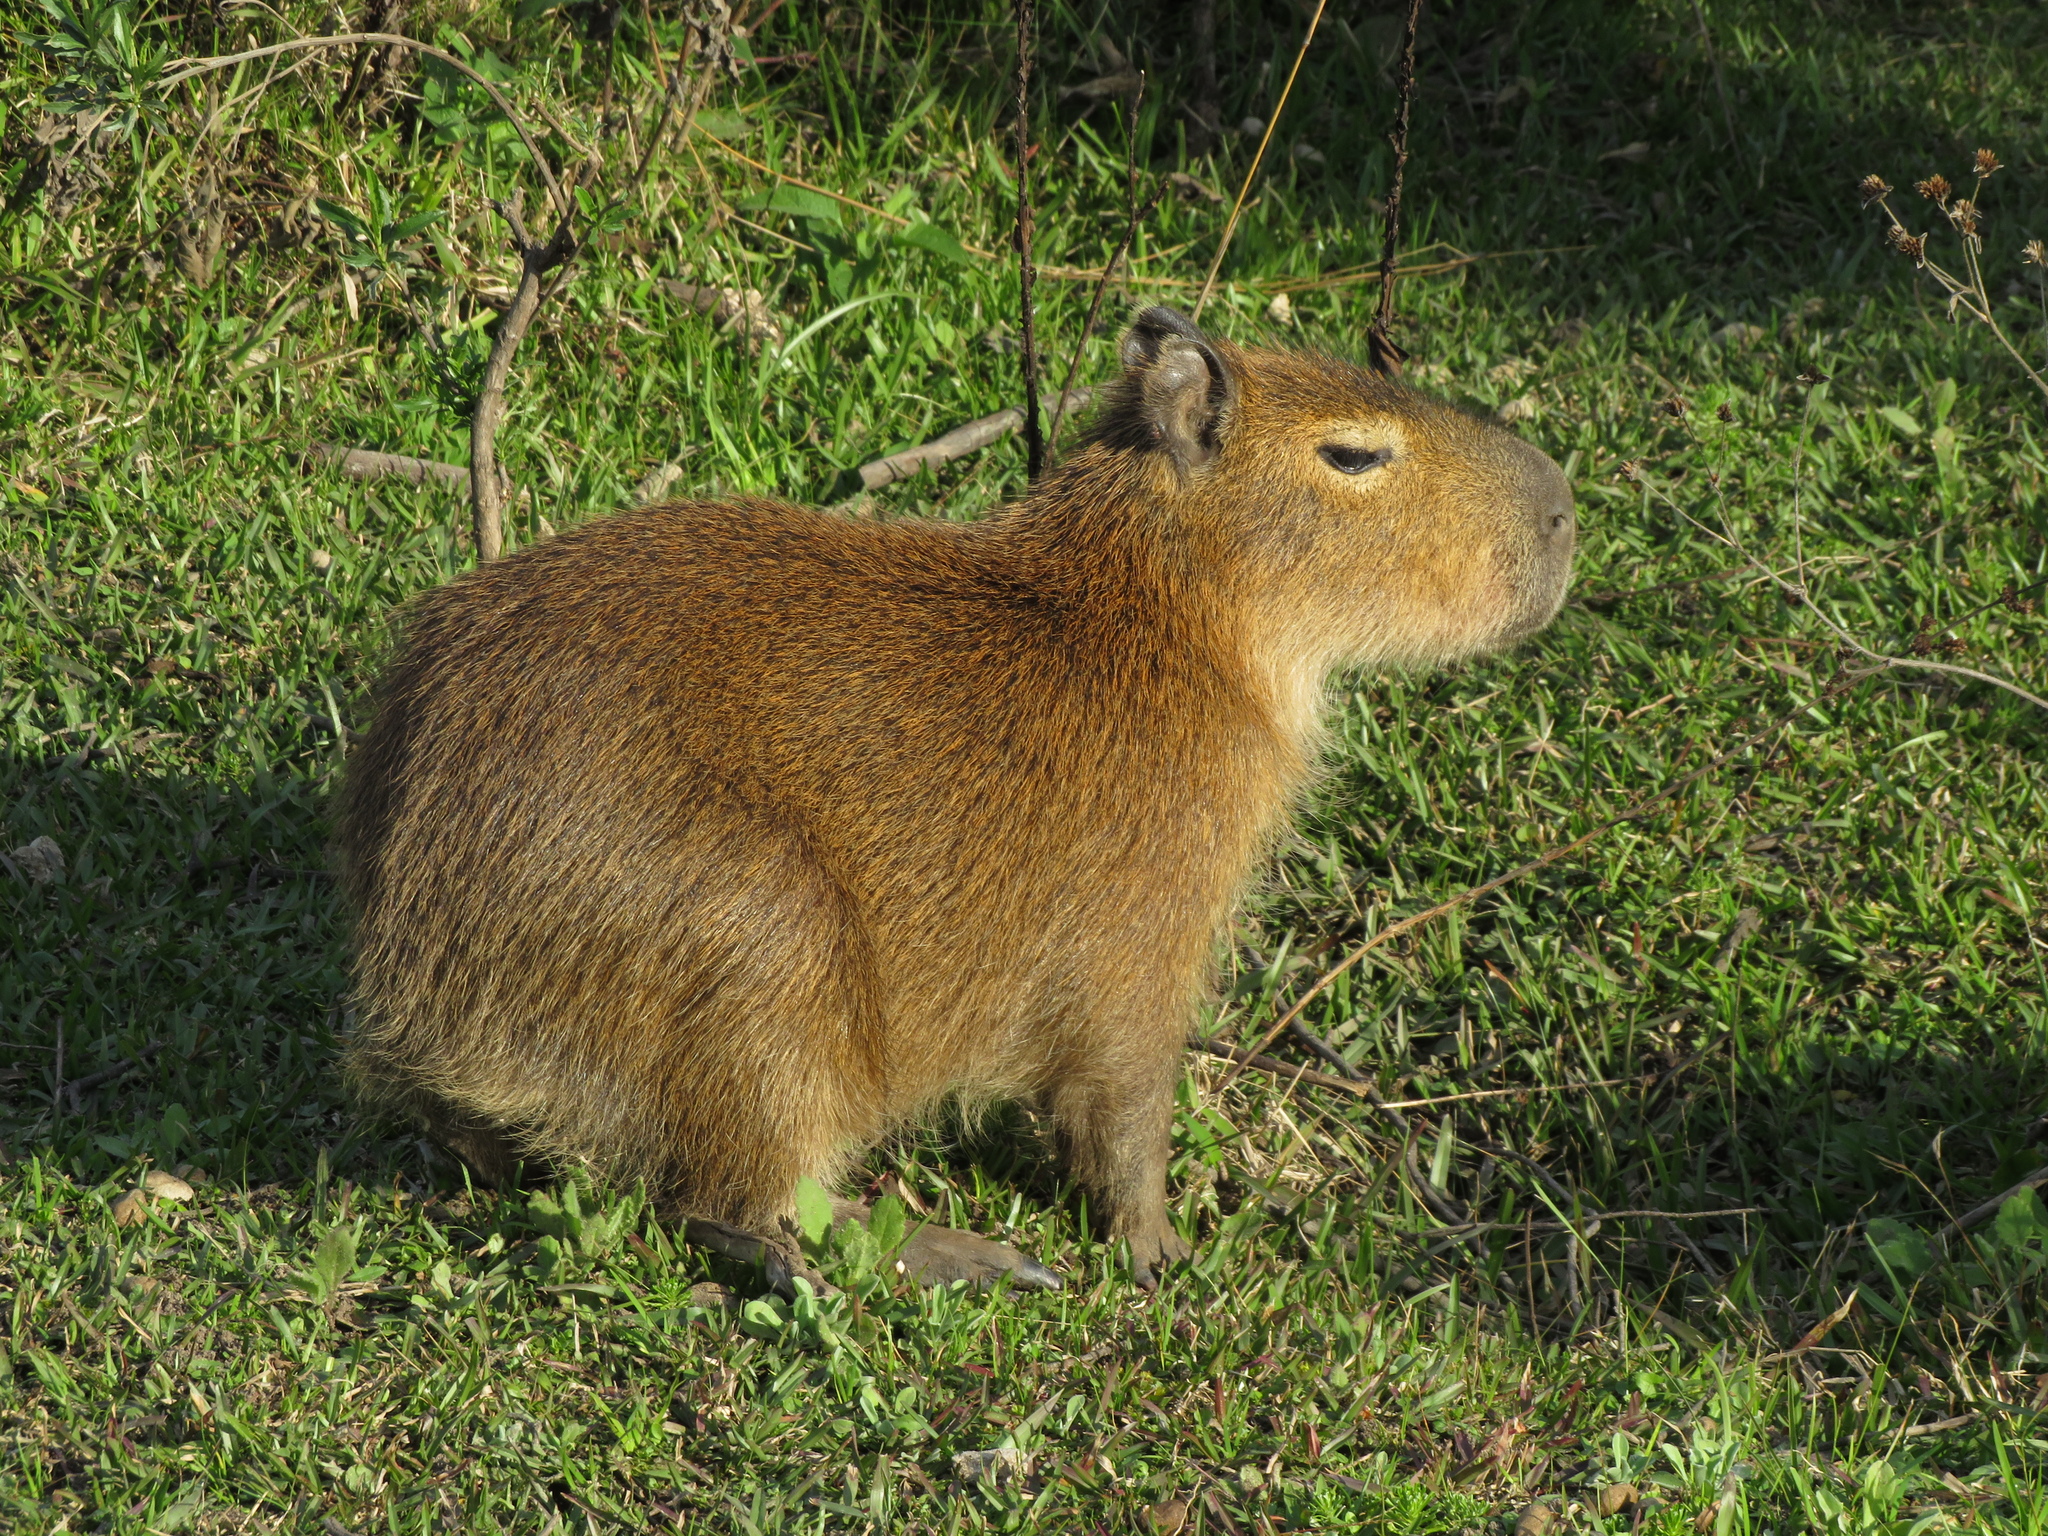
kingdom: Animalia
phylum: Chordata
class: Mammalia
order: Rodentia
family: Caviidae
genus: Hydrochoerus
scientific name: Hydrochoerus hydrochaeris
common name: Capybara
